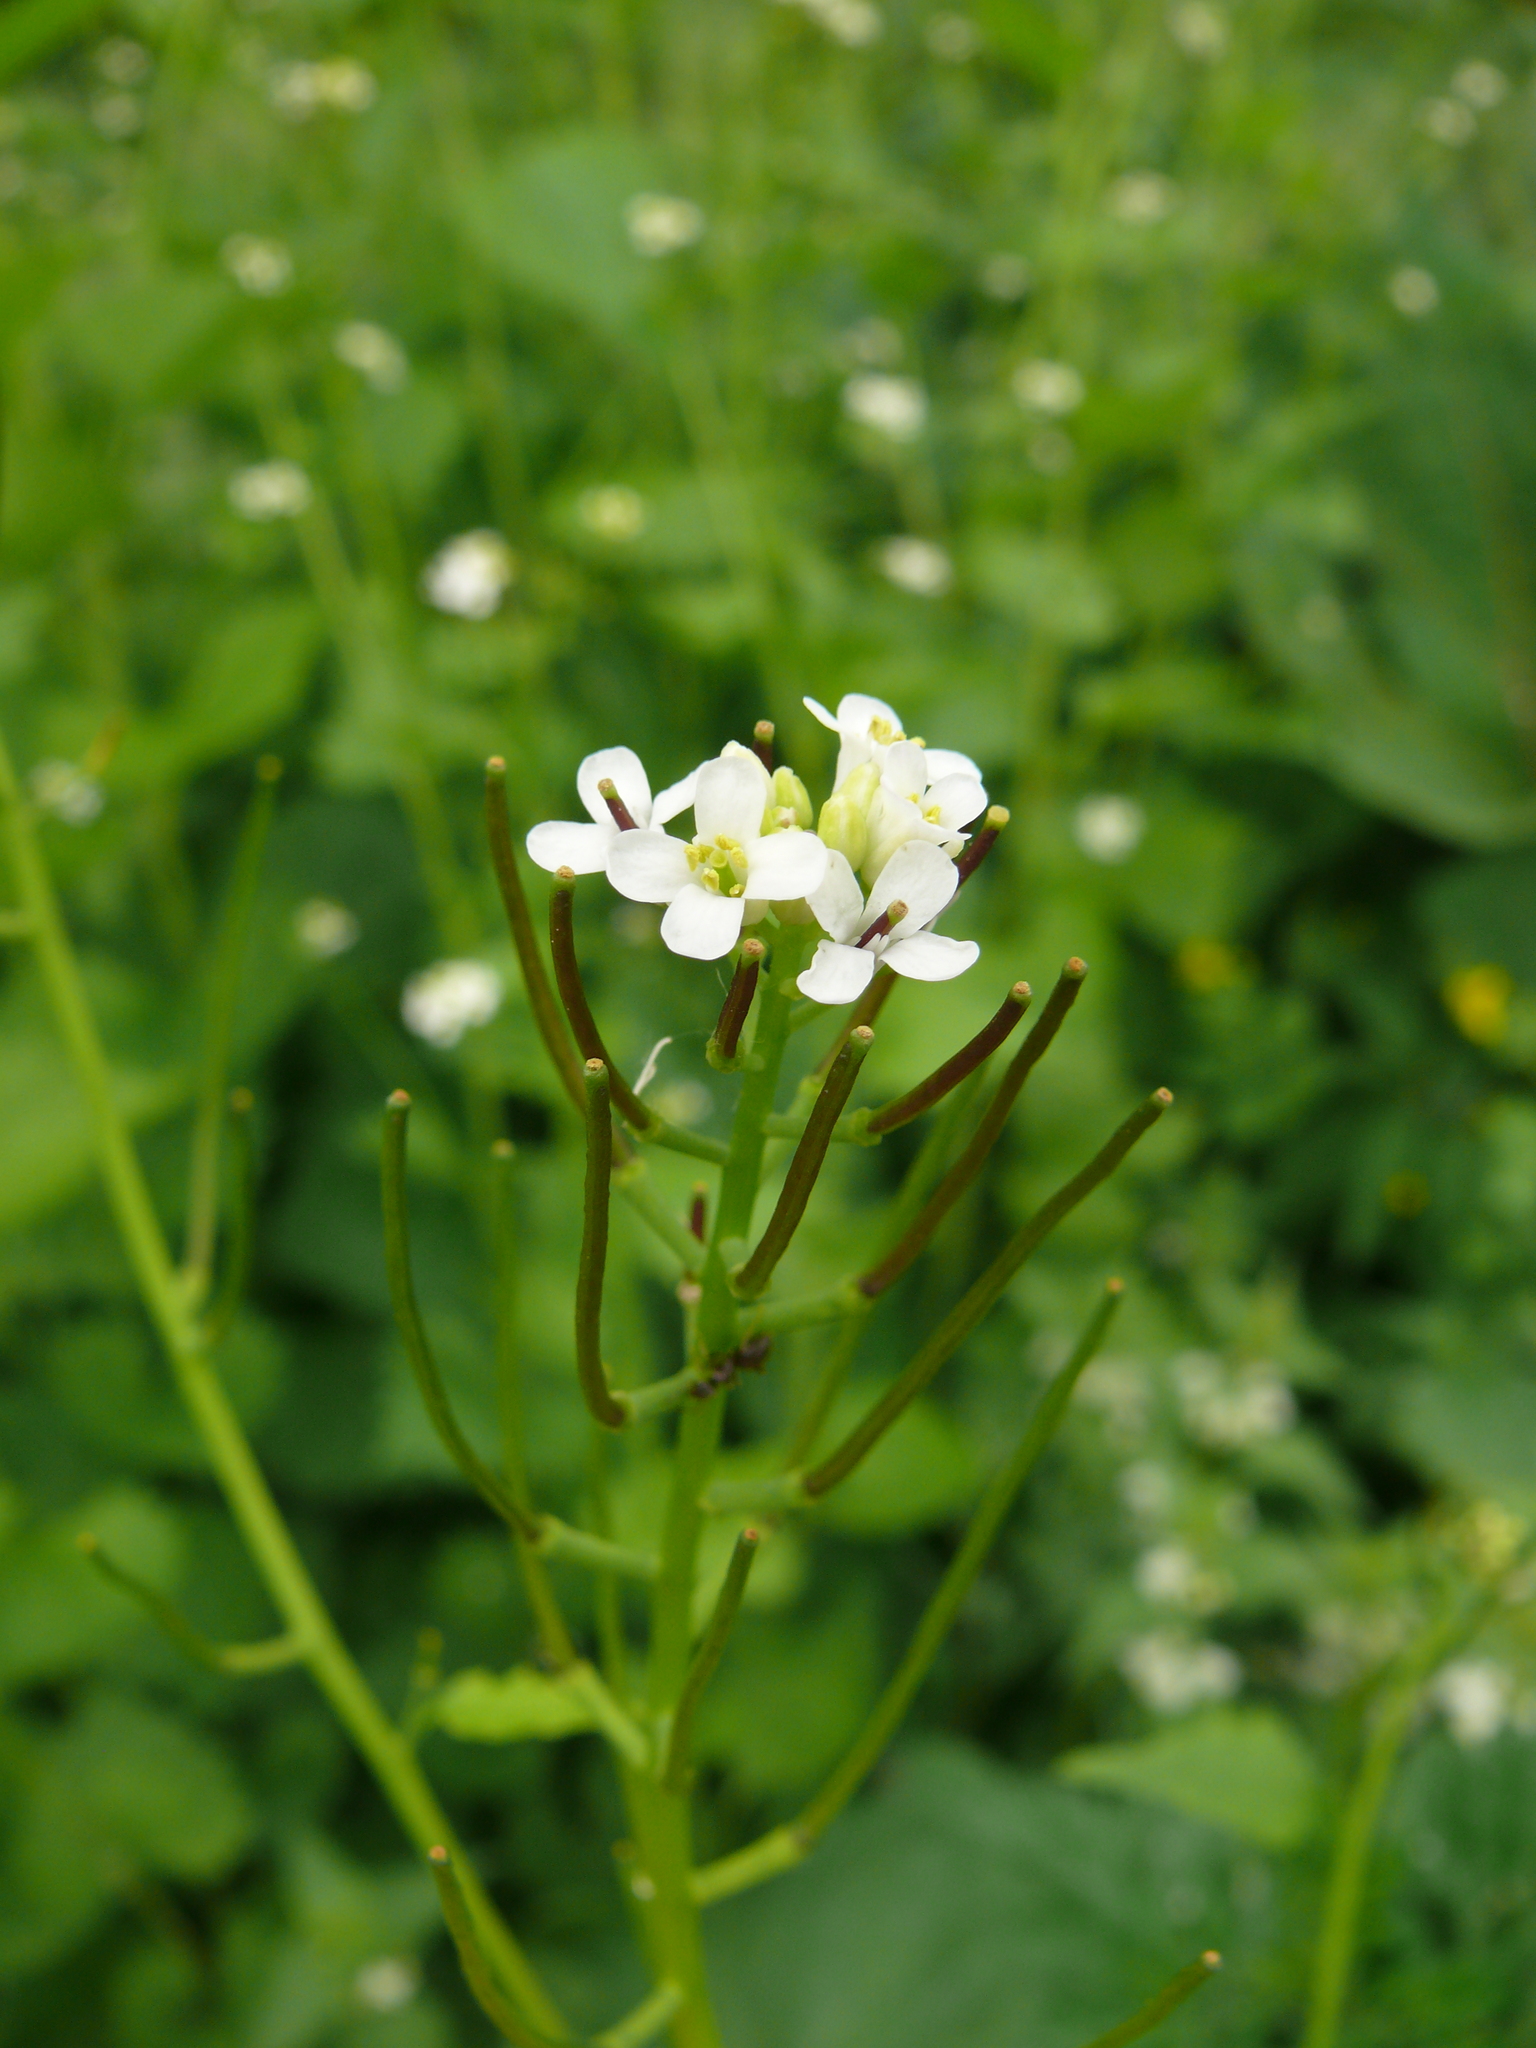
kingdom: Plantae
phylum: Tracheophyta
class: Magnoliopsida
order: Brassicales
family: Brassicaceae
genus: Alliaria
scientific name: Alliaria petiolata
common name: Garlic mustard
